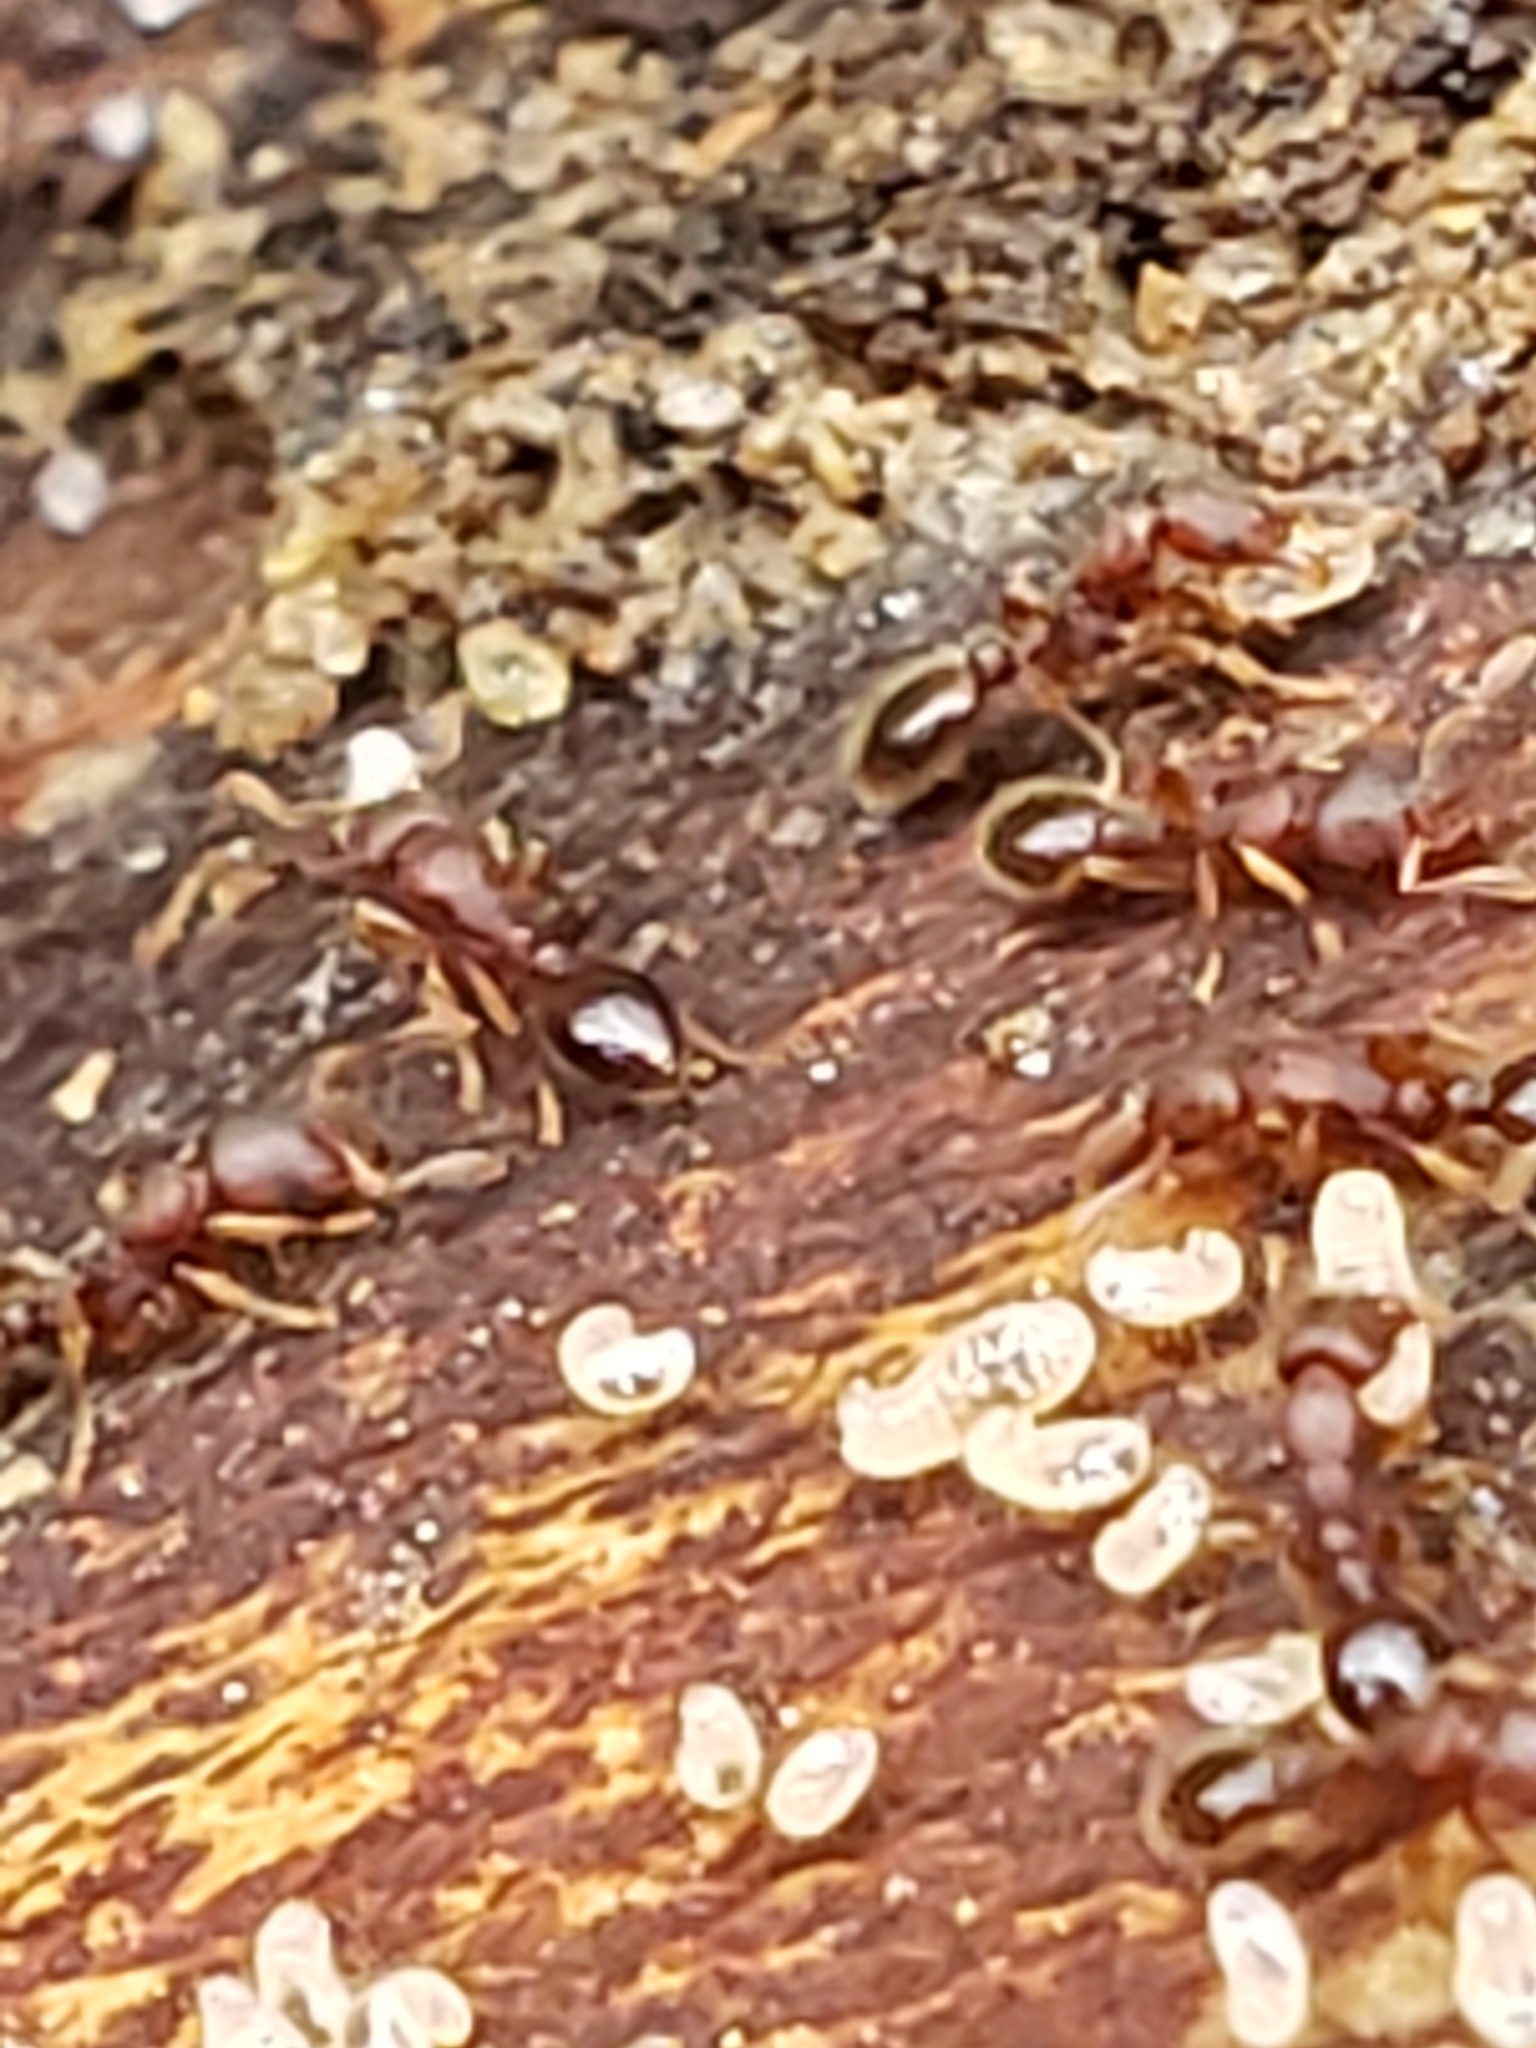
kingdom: Animalia
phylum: Arthropoda
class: Insecta
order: Hymenoptera
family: Formicidae
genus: Vollenhovia
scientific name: Vollenhovia emeryi
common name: Ant
